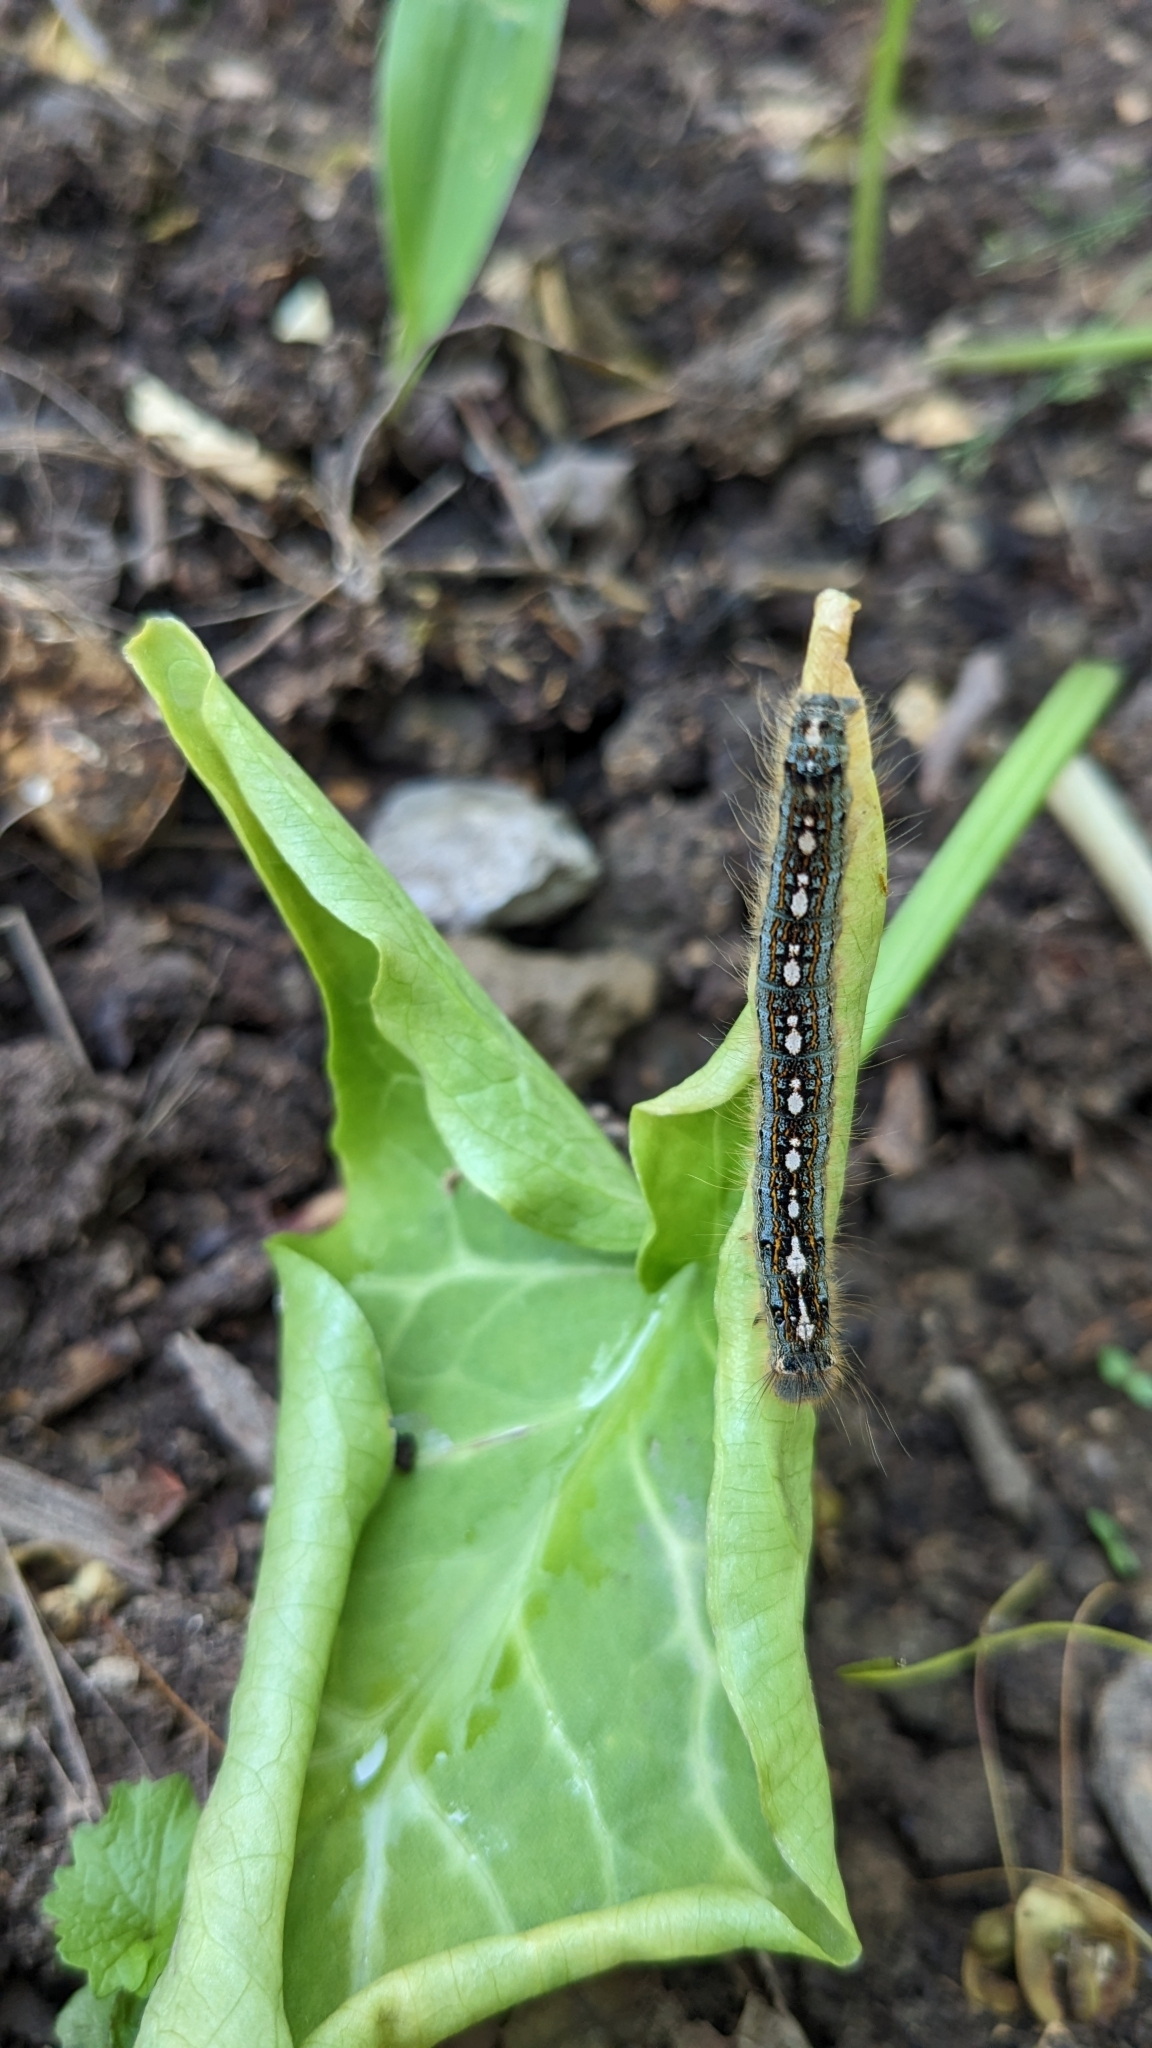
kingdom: Animalia
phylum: Arthropoda
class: Insecta
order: Lepidoptera
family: Lasiocampidae
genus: Malacosoma
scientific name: Malacosoma disstria
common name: Forest tent caterpillar
